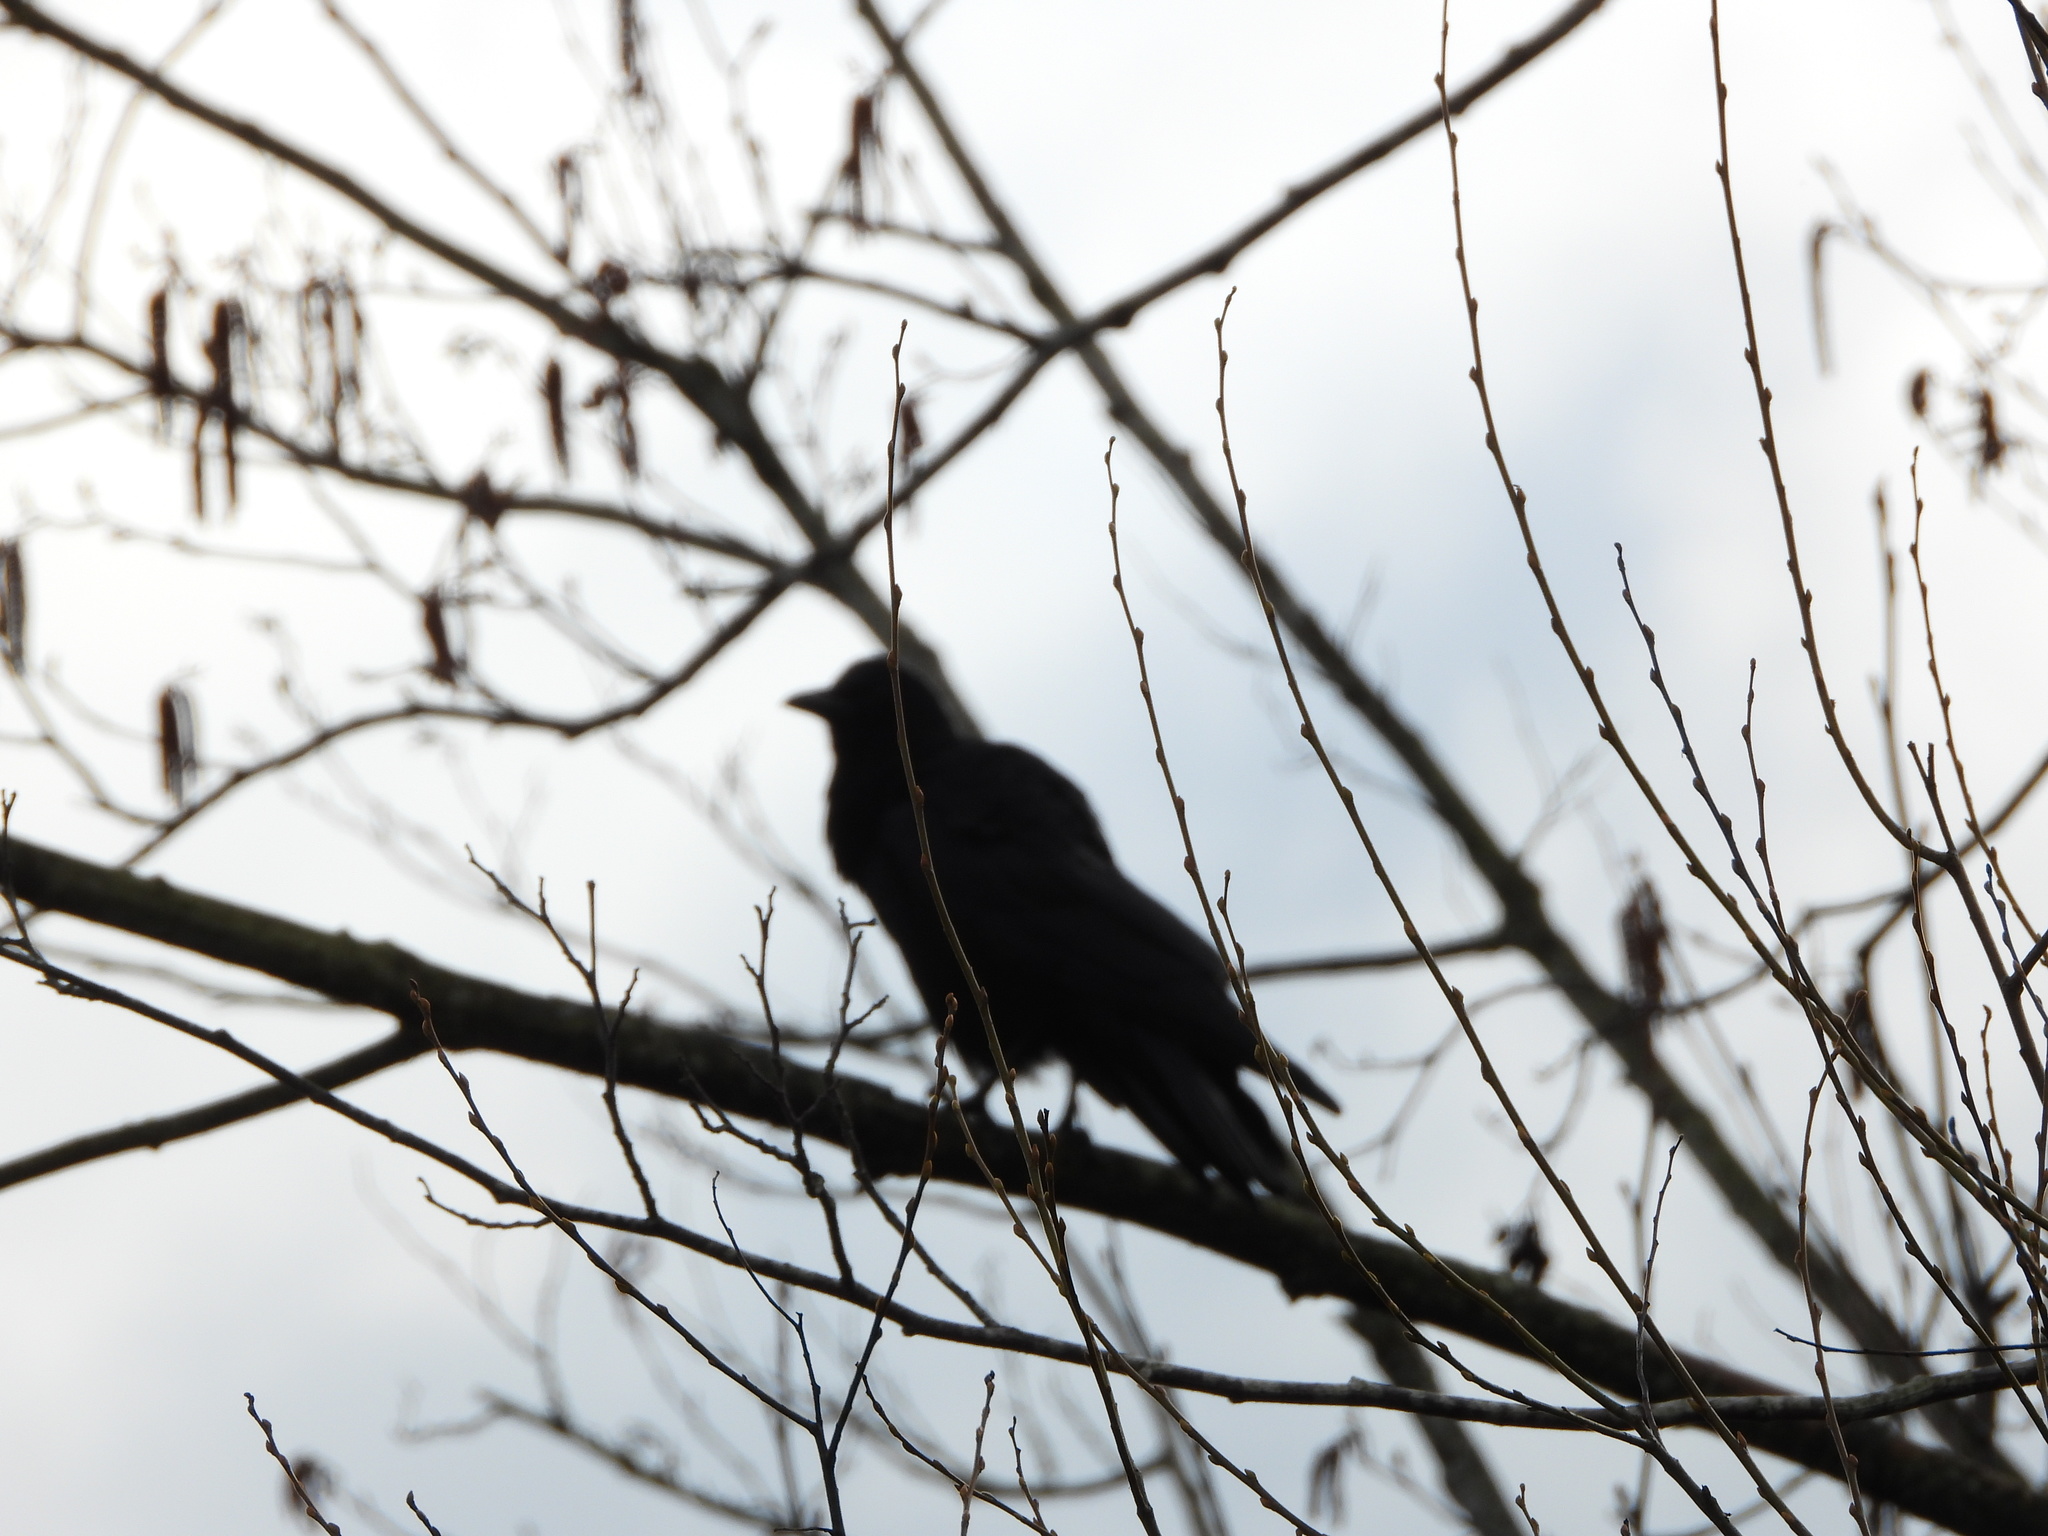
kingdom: Animalia
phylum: Chordata
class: Aves
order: Passeriformes
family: Corvidae
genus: Corvus
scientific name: Corvus brachyrhynchos
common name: American crow
